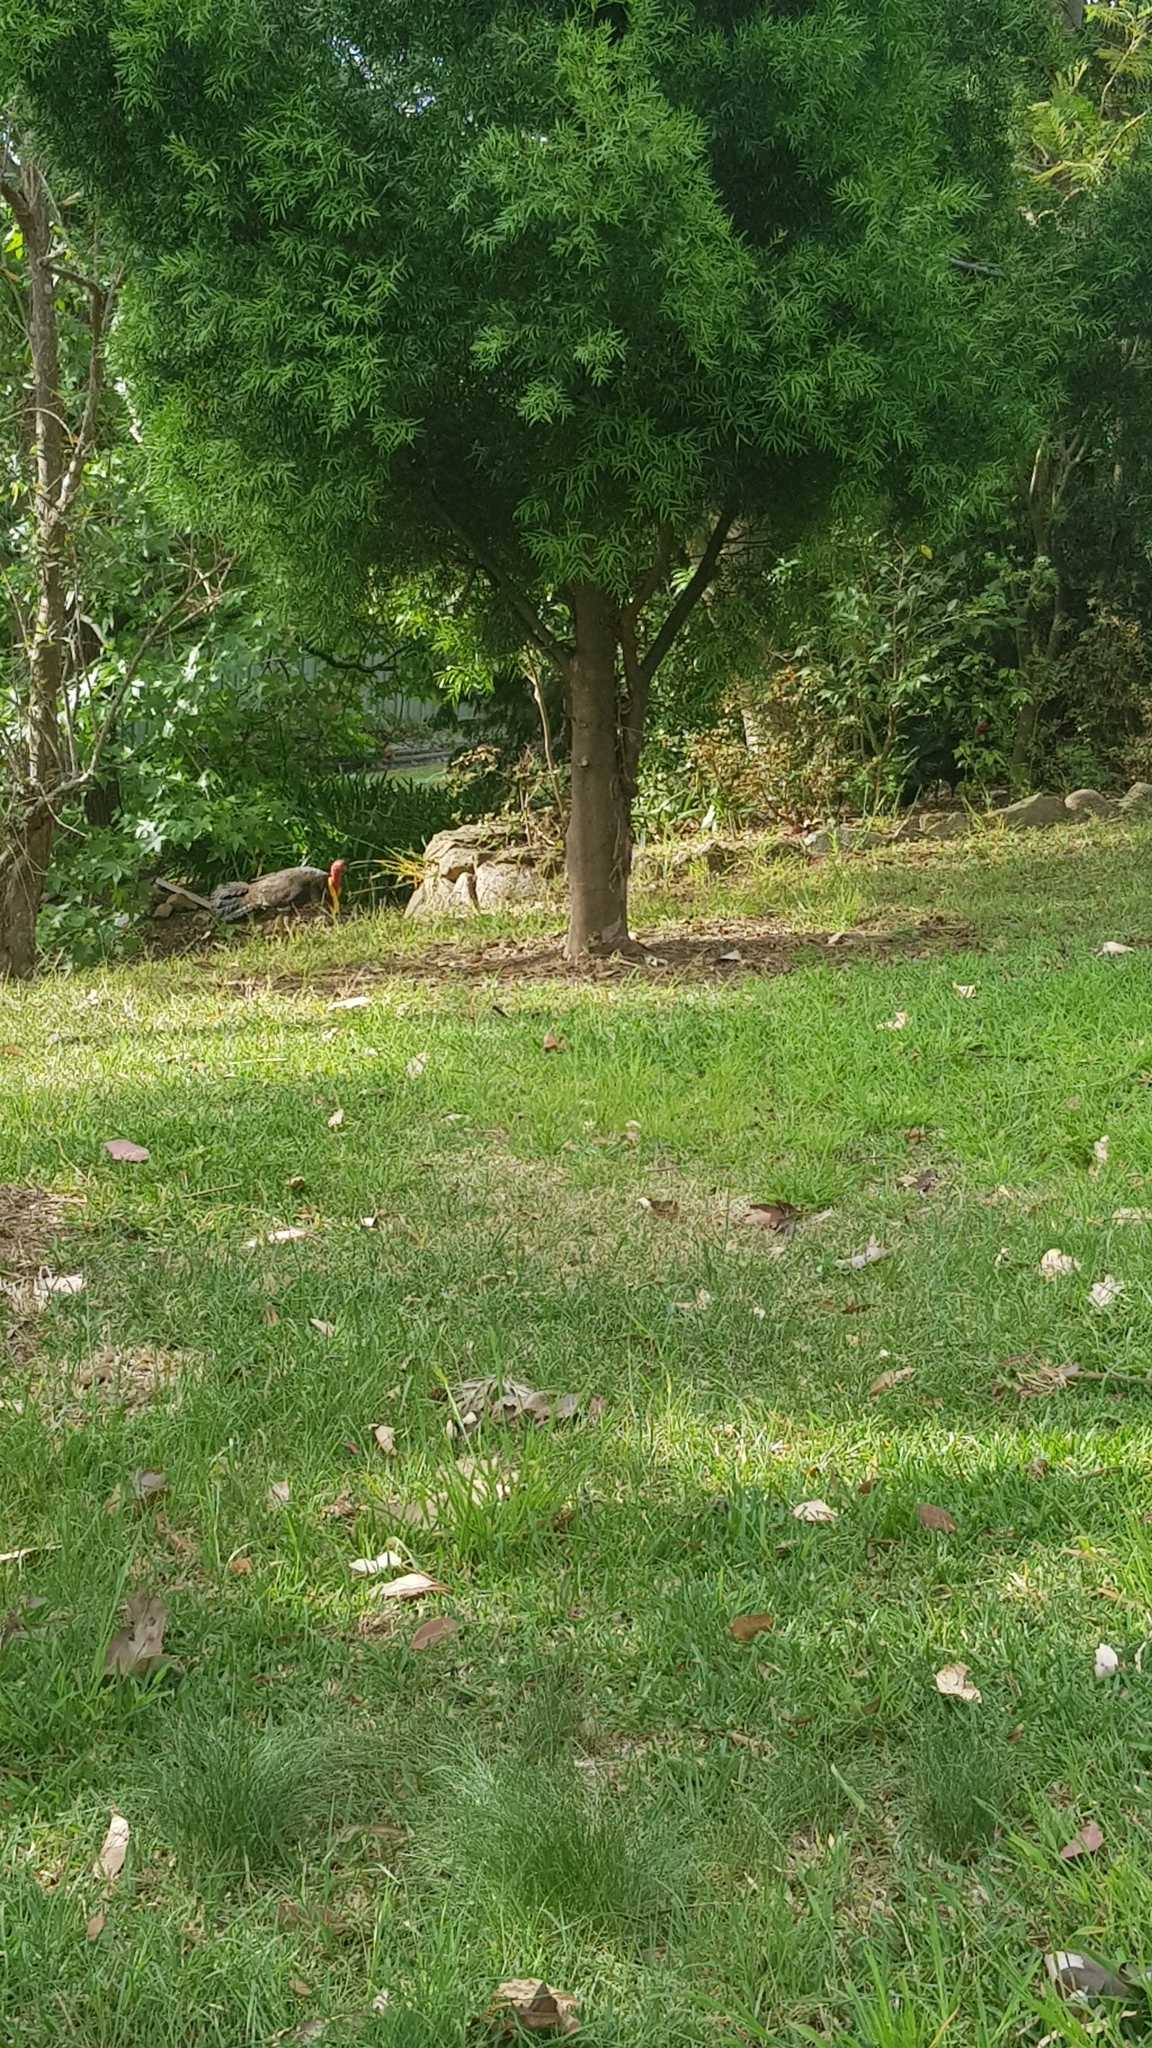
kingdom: Animalia
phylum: Chordata
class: Aves
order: Galliformes
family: Megapodiidae
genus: Alectura
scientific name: Alectura lathami
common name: Australian brushturkey
